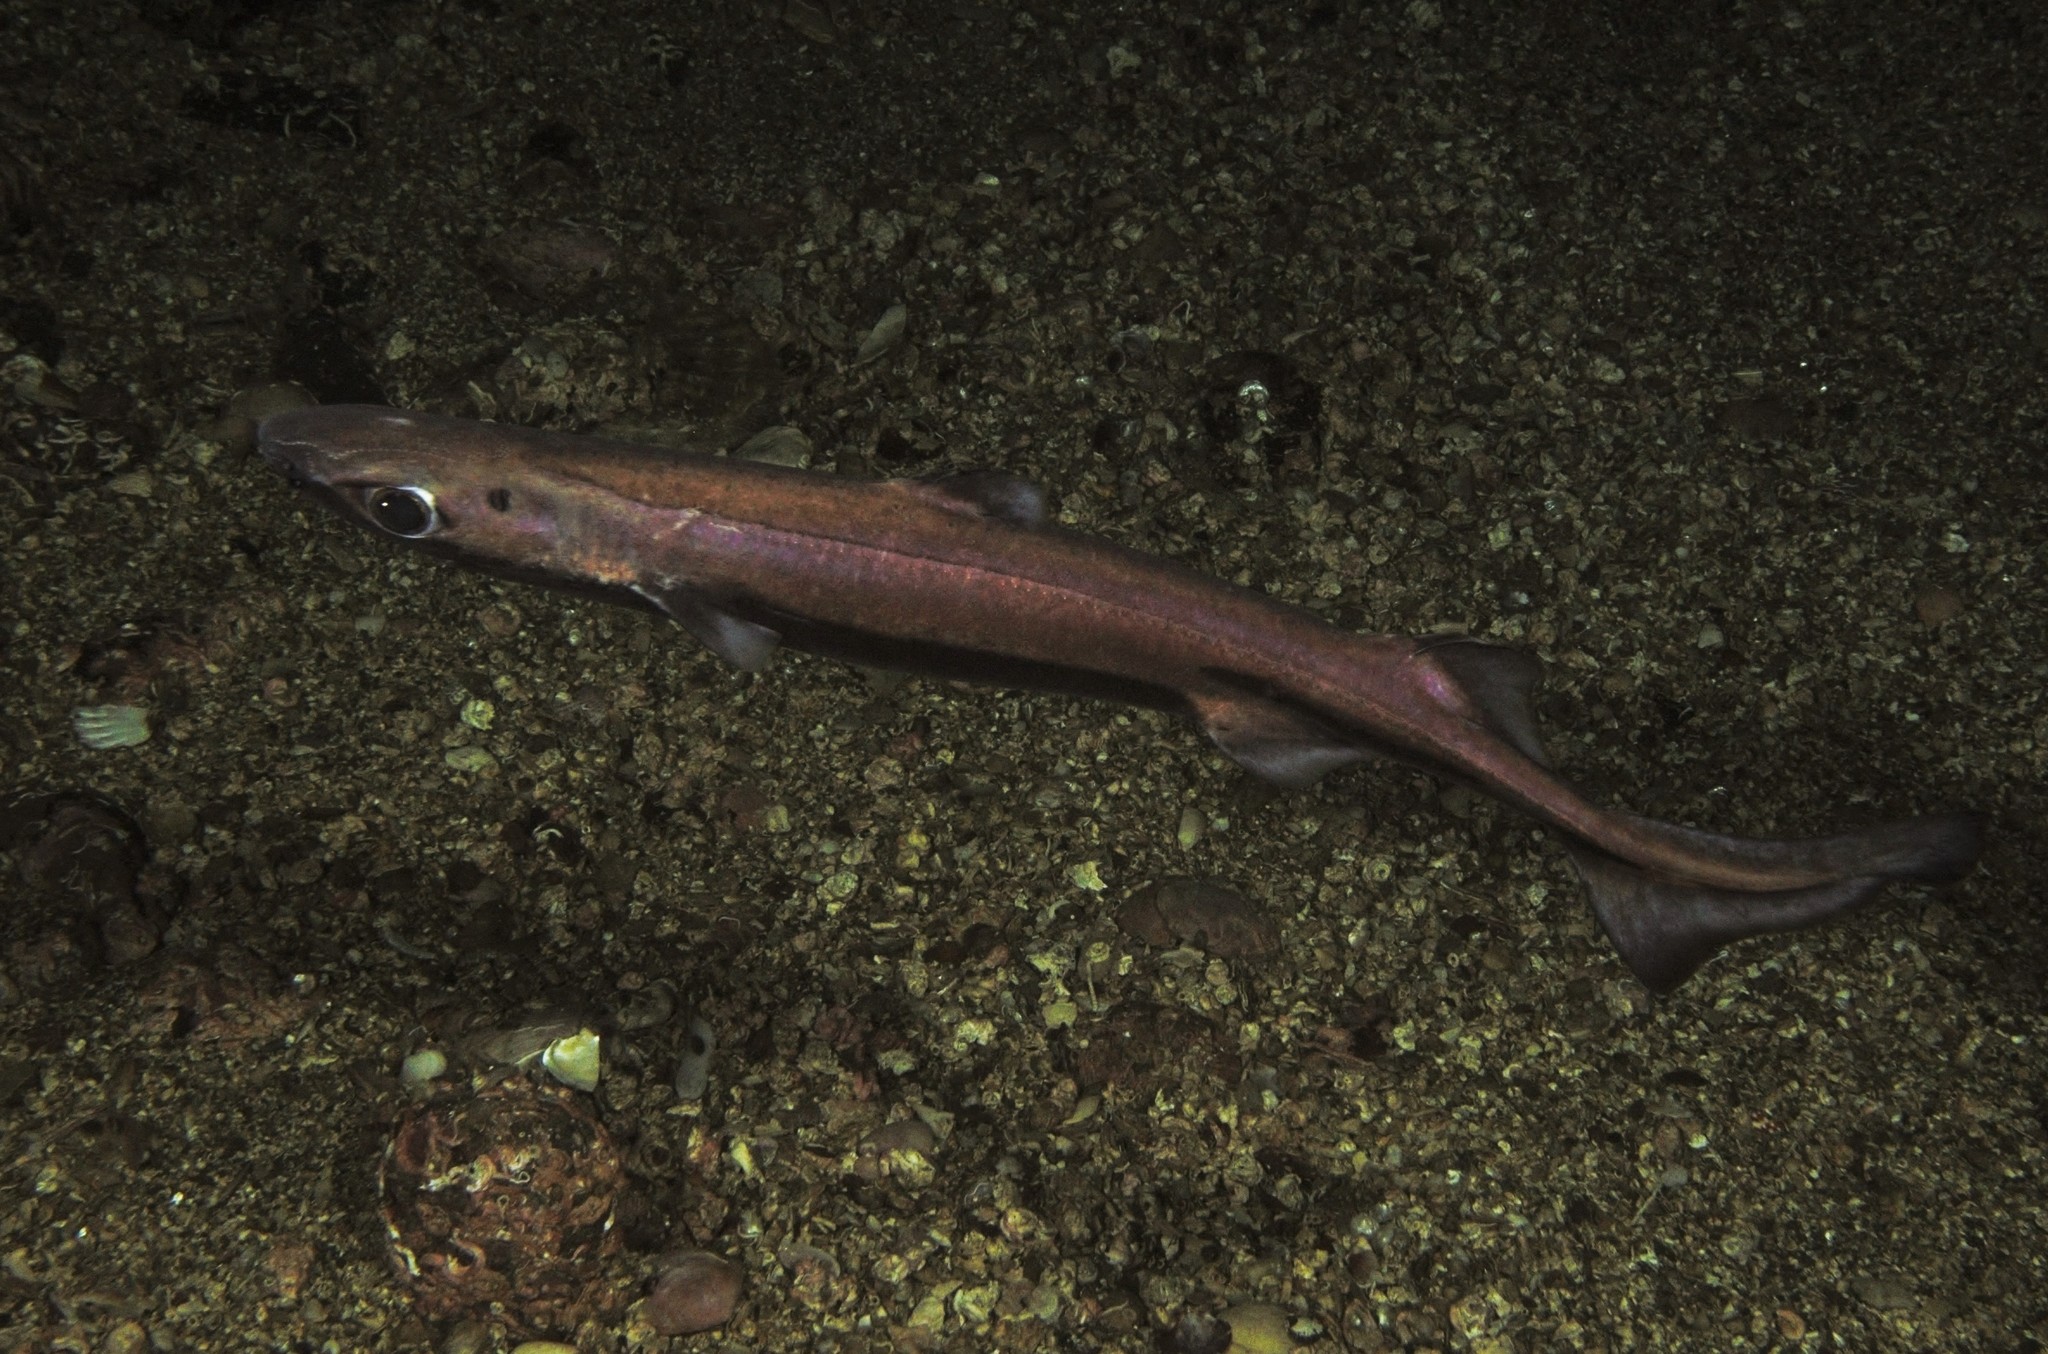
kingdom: Animalia
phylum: Chordata
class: Elasmobranchii
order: Squaliformes
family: Etmopteridae
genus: Etmopterus
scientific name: Etmopterus spinax
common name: Velvet belly
